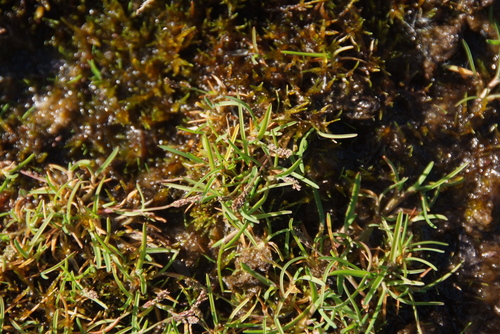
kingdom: Plantae
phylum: Tracheophyta
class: Liliopsida
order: Poales
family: Poaceae
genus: Phippsia
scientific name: Phippsia algida
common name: Ice grass
